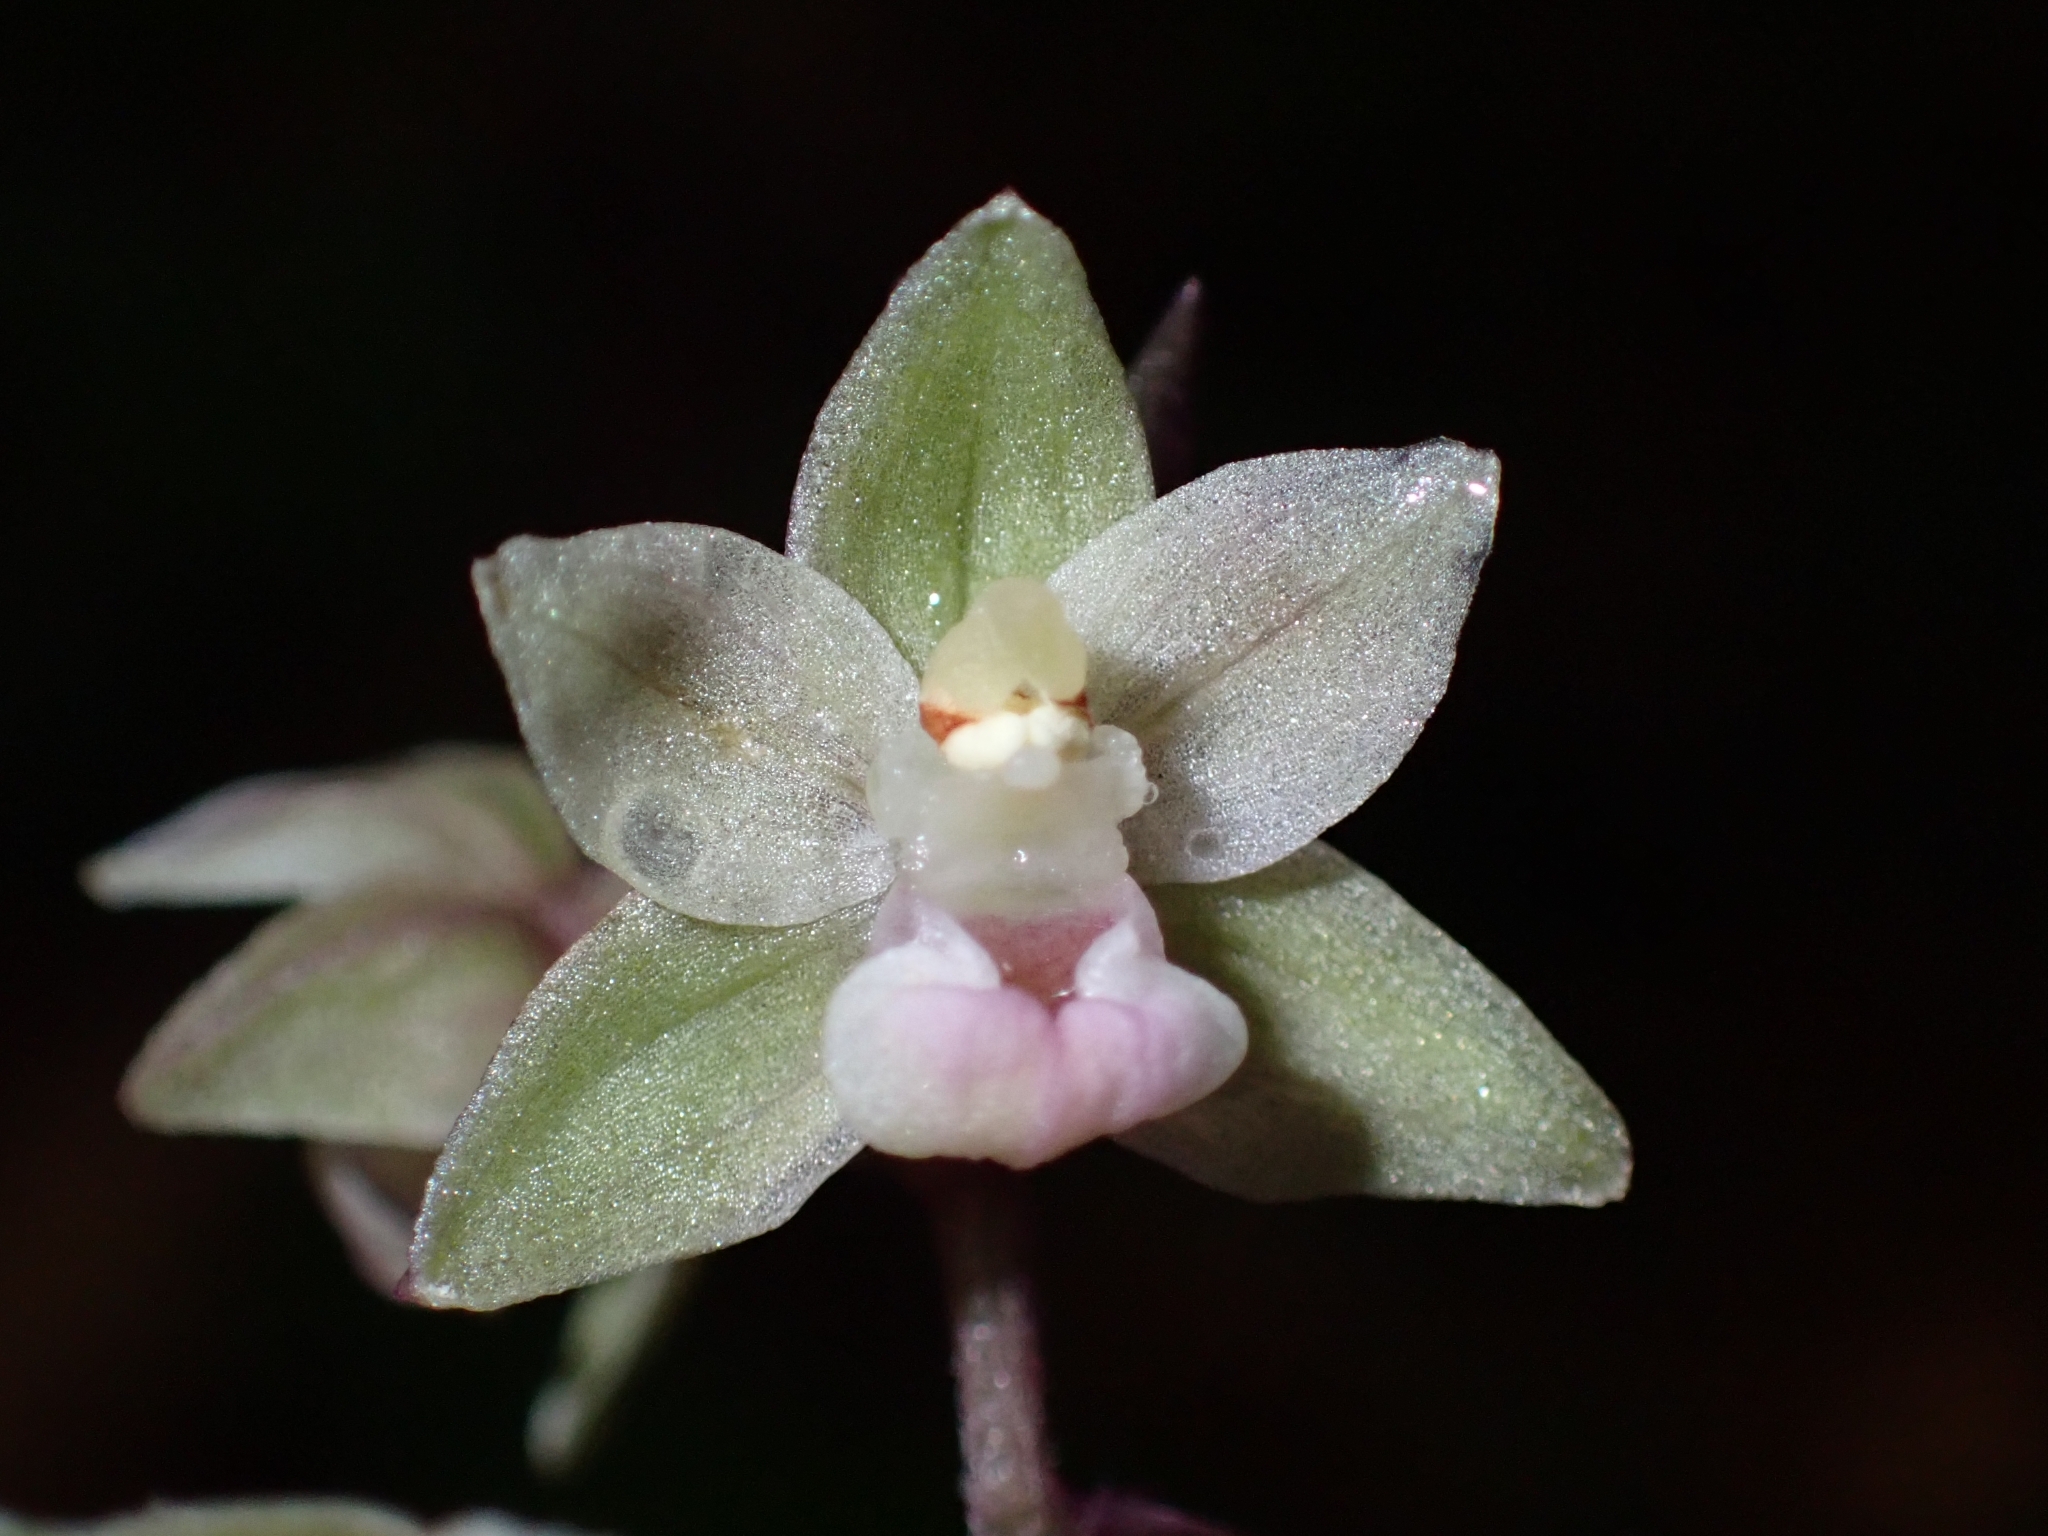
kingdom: Plantae
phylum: Tracheophyta
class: Liliopsida
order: Asparagales
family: Orchidaceae
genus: Epipactis
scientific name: Epipactis purpurata
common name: Violet helleborine
